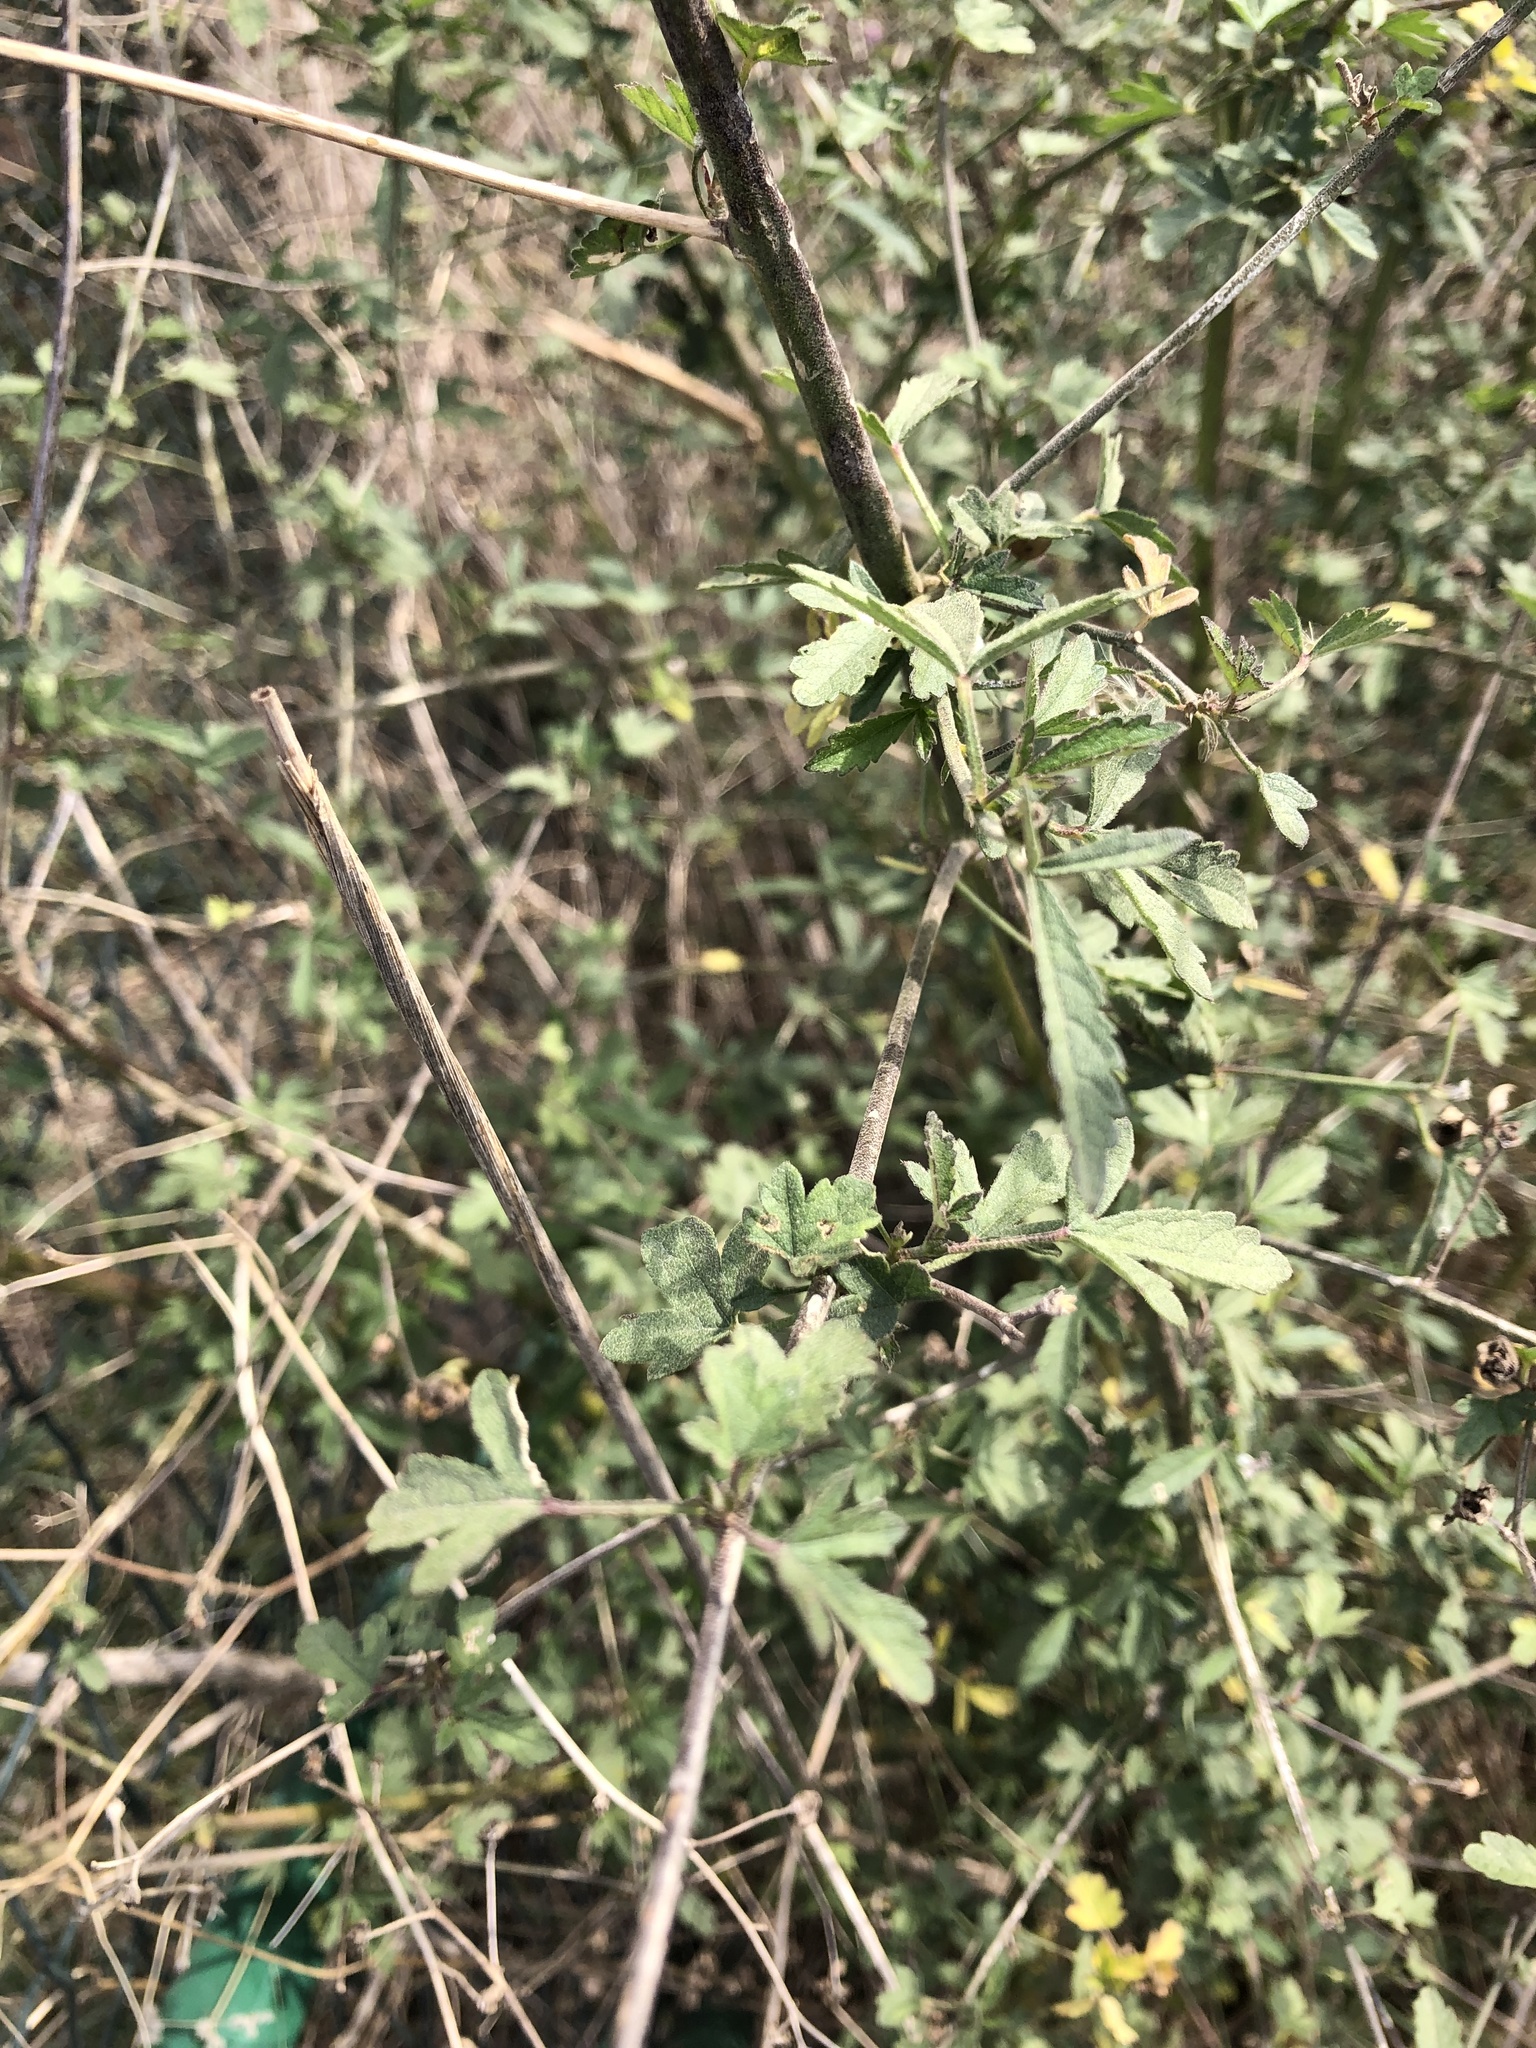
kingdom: Plantae
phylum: Tracheophyta
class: Magnoliopsida
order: Malvales
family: Malvaceae
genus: Althaea
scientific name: Althaea cannabina
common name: Palm-leaf marshmallow
